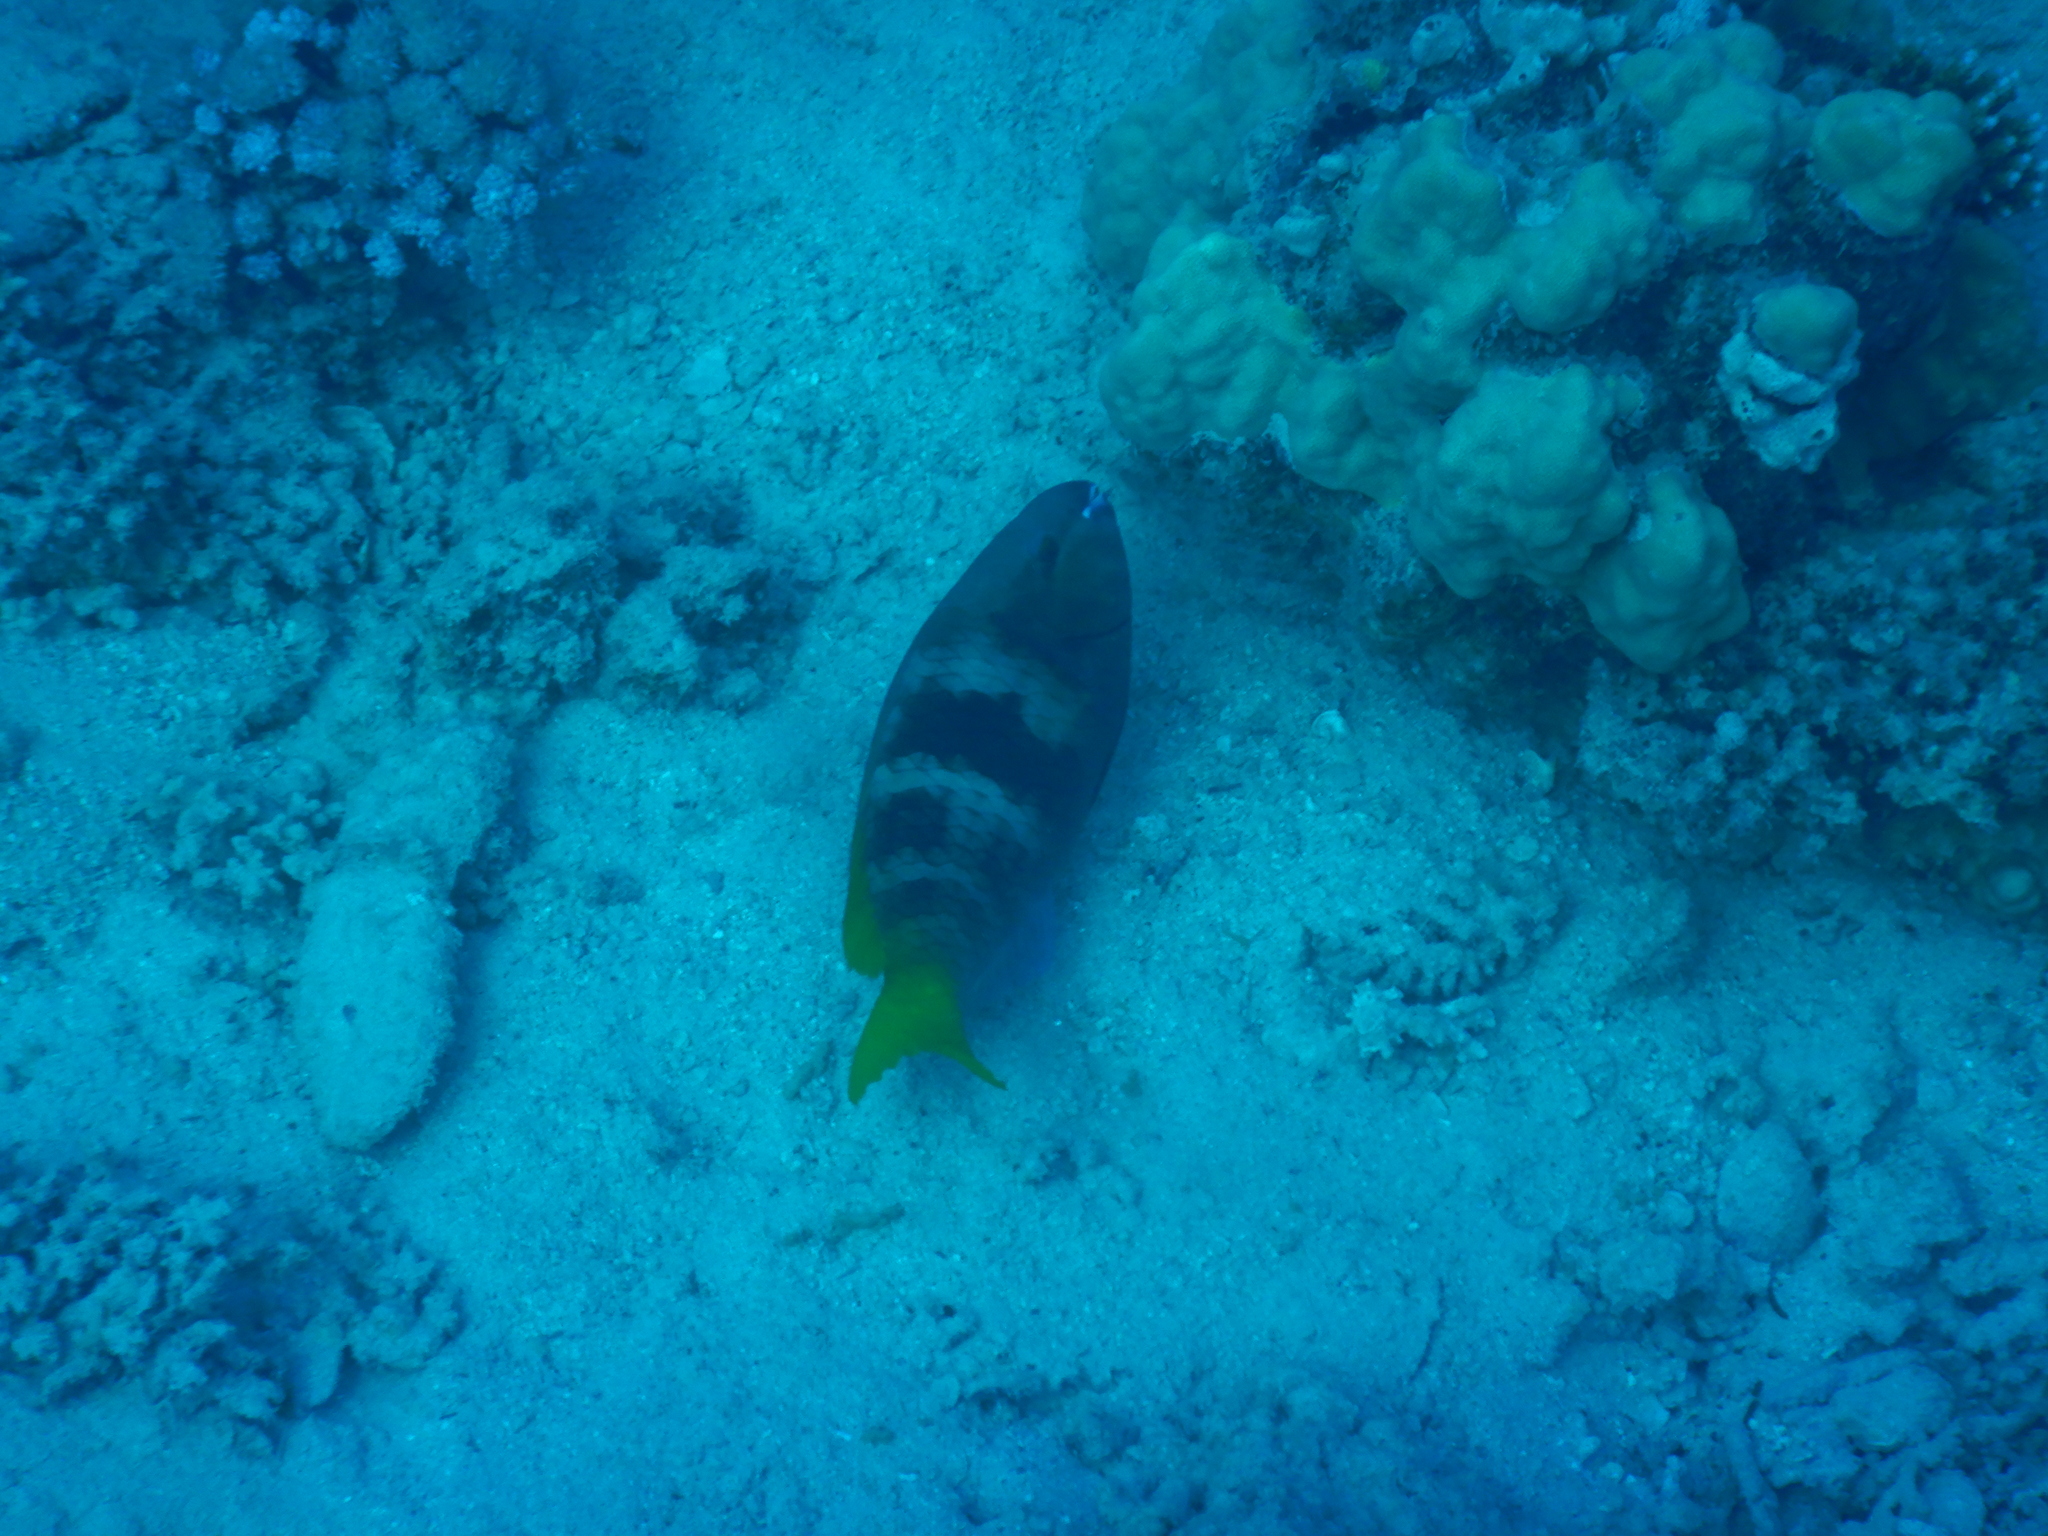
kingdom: Animalia
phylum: Chordata
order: Perciformes
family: Scaridae
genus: Scarus
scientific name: Scarus ferrugineus
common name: Rusty parrotfish
